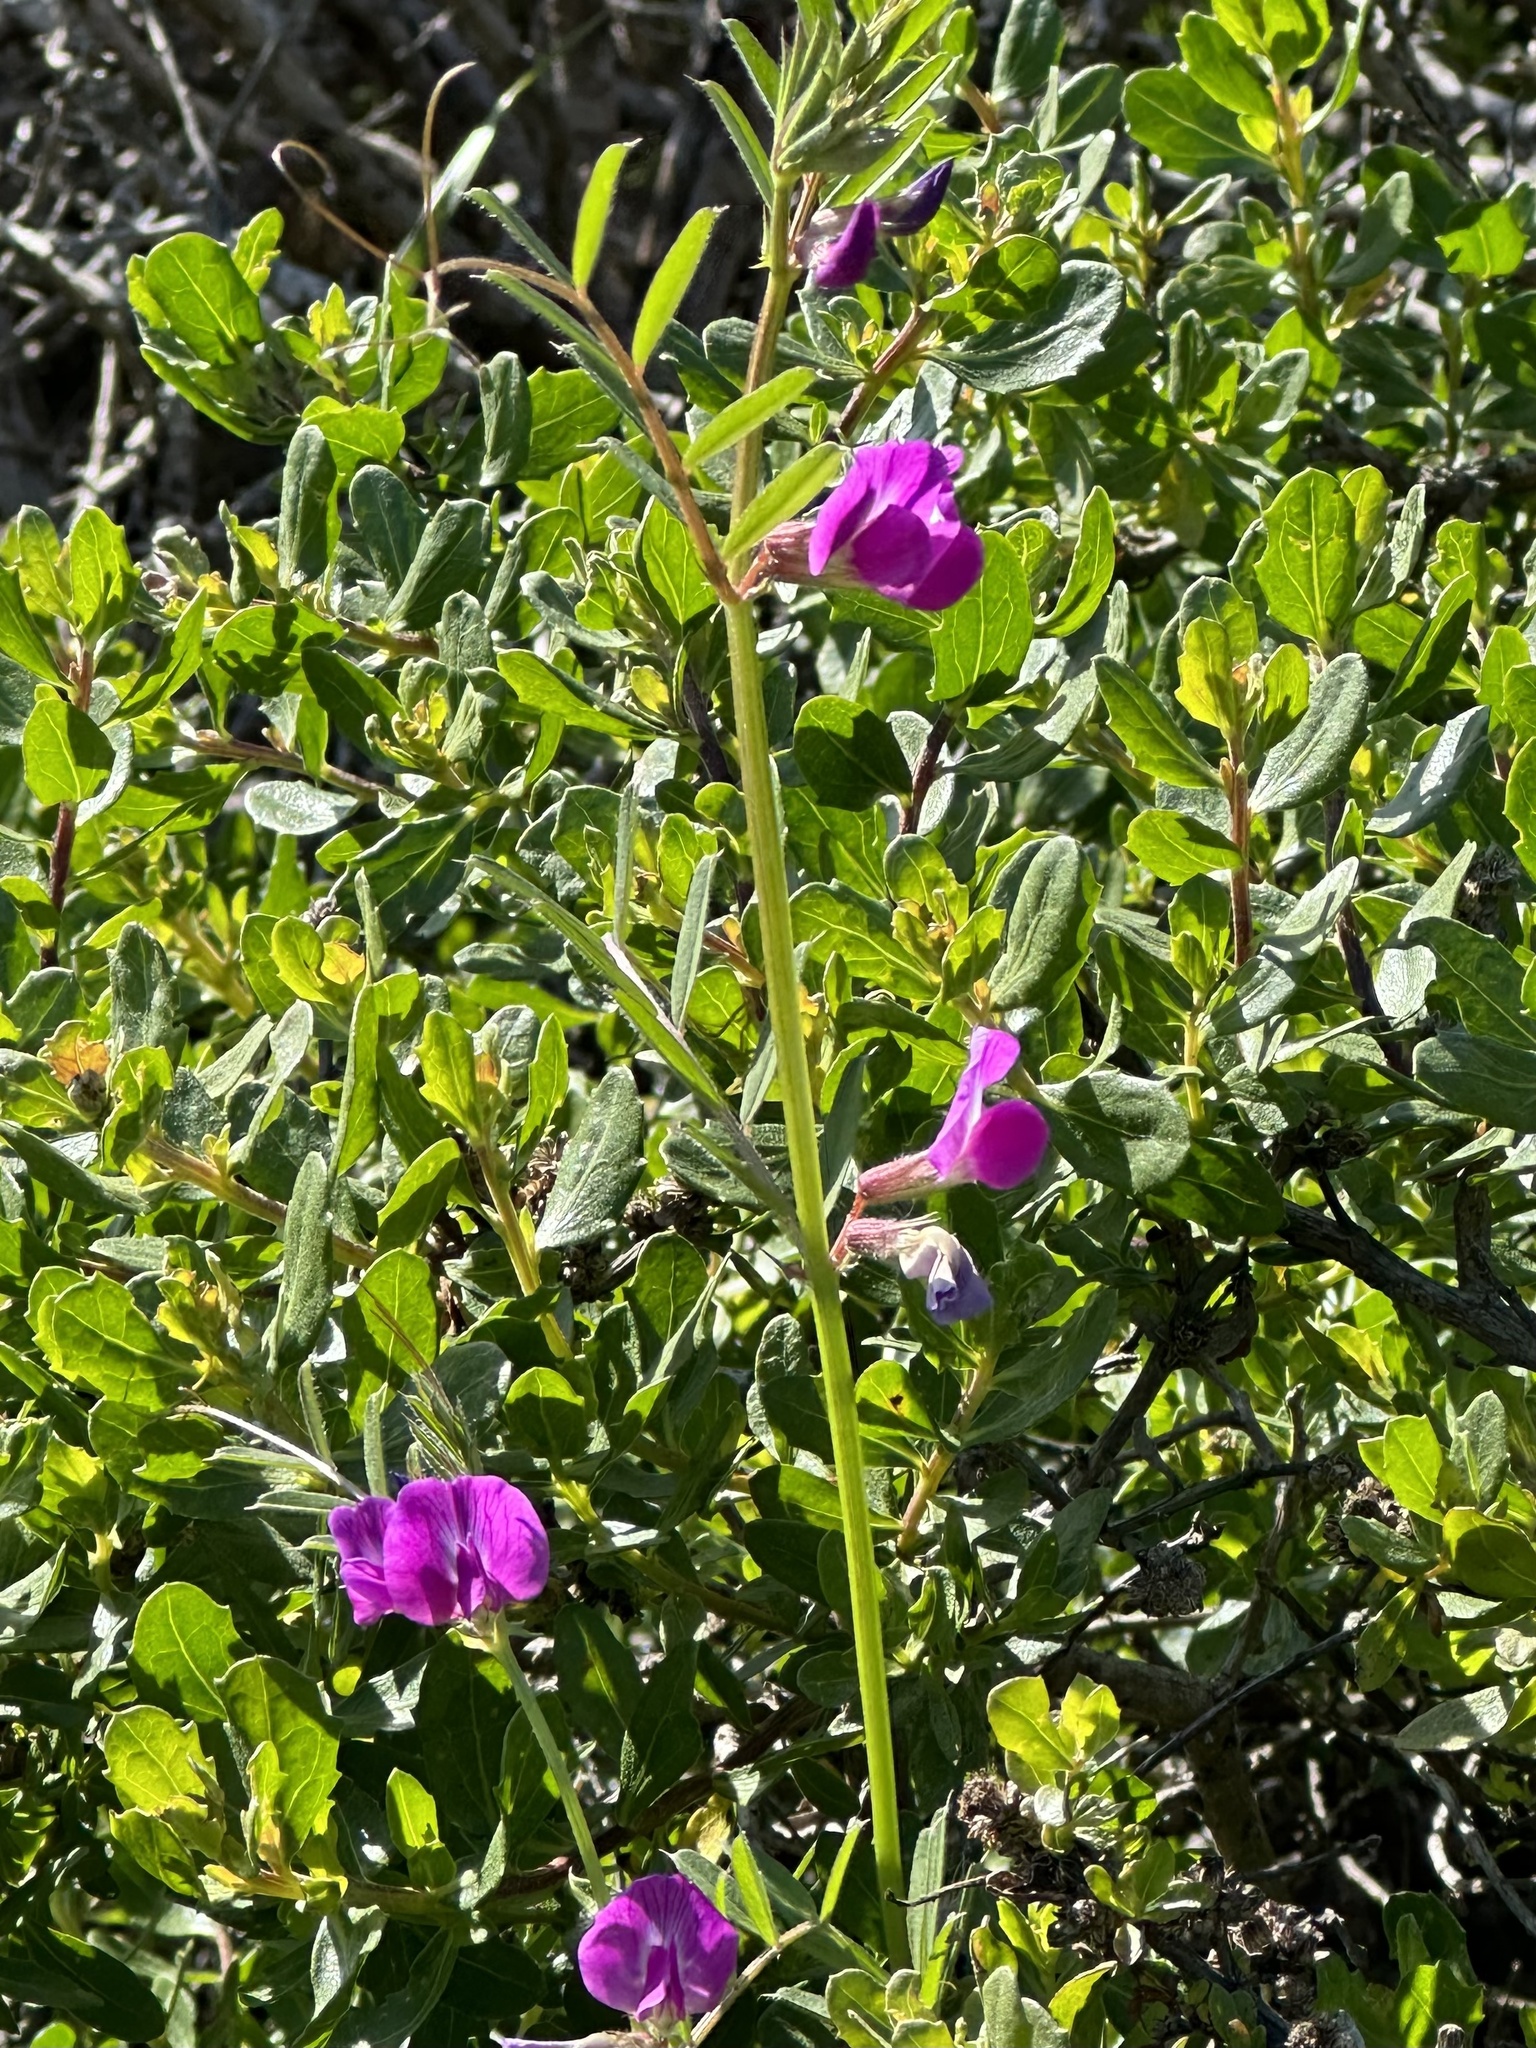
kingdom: Plantae
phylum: Tracheophyta
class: Magnoliopsida
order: Fabales
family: Fabaceae
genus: Vicia
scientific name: Vicia sativa
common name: Garden vetch
